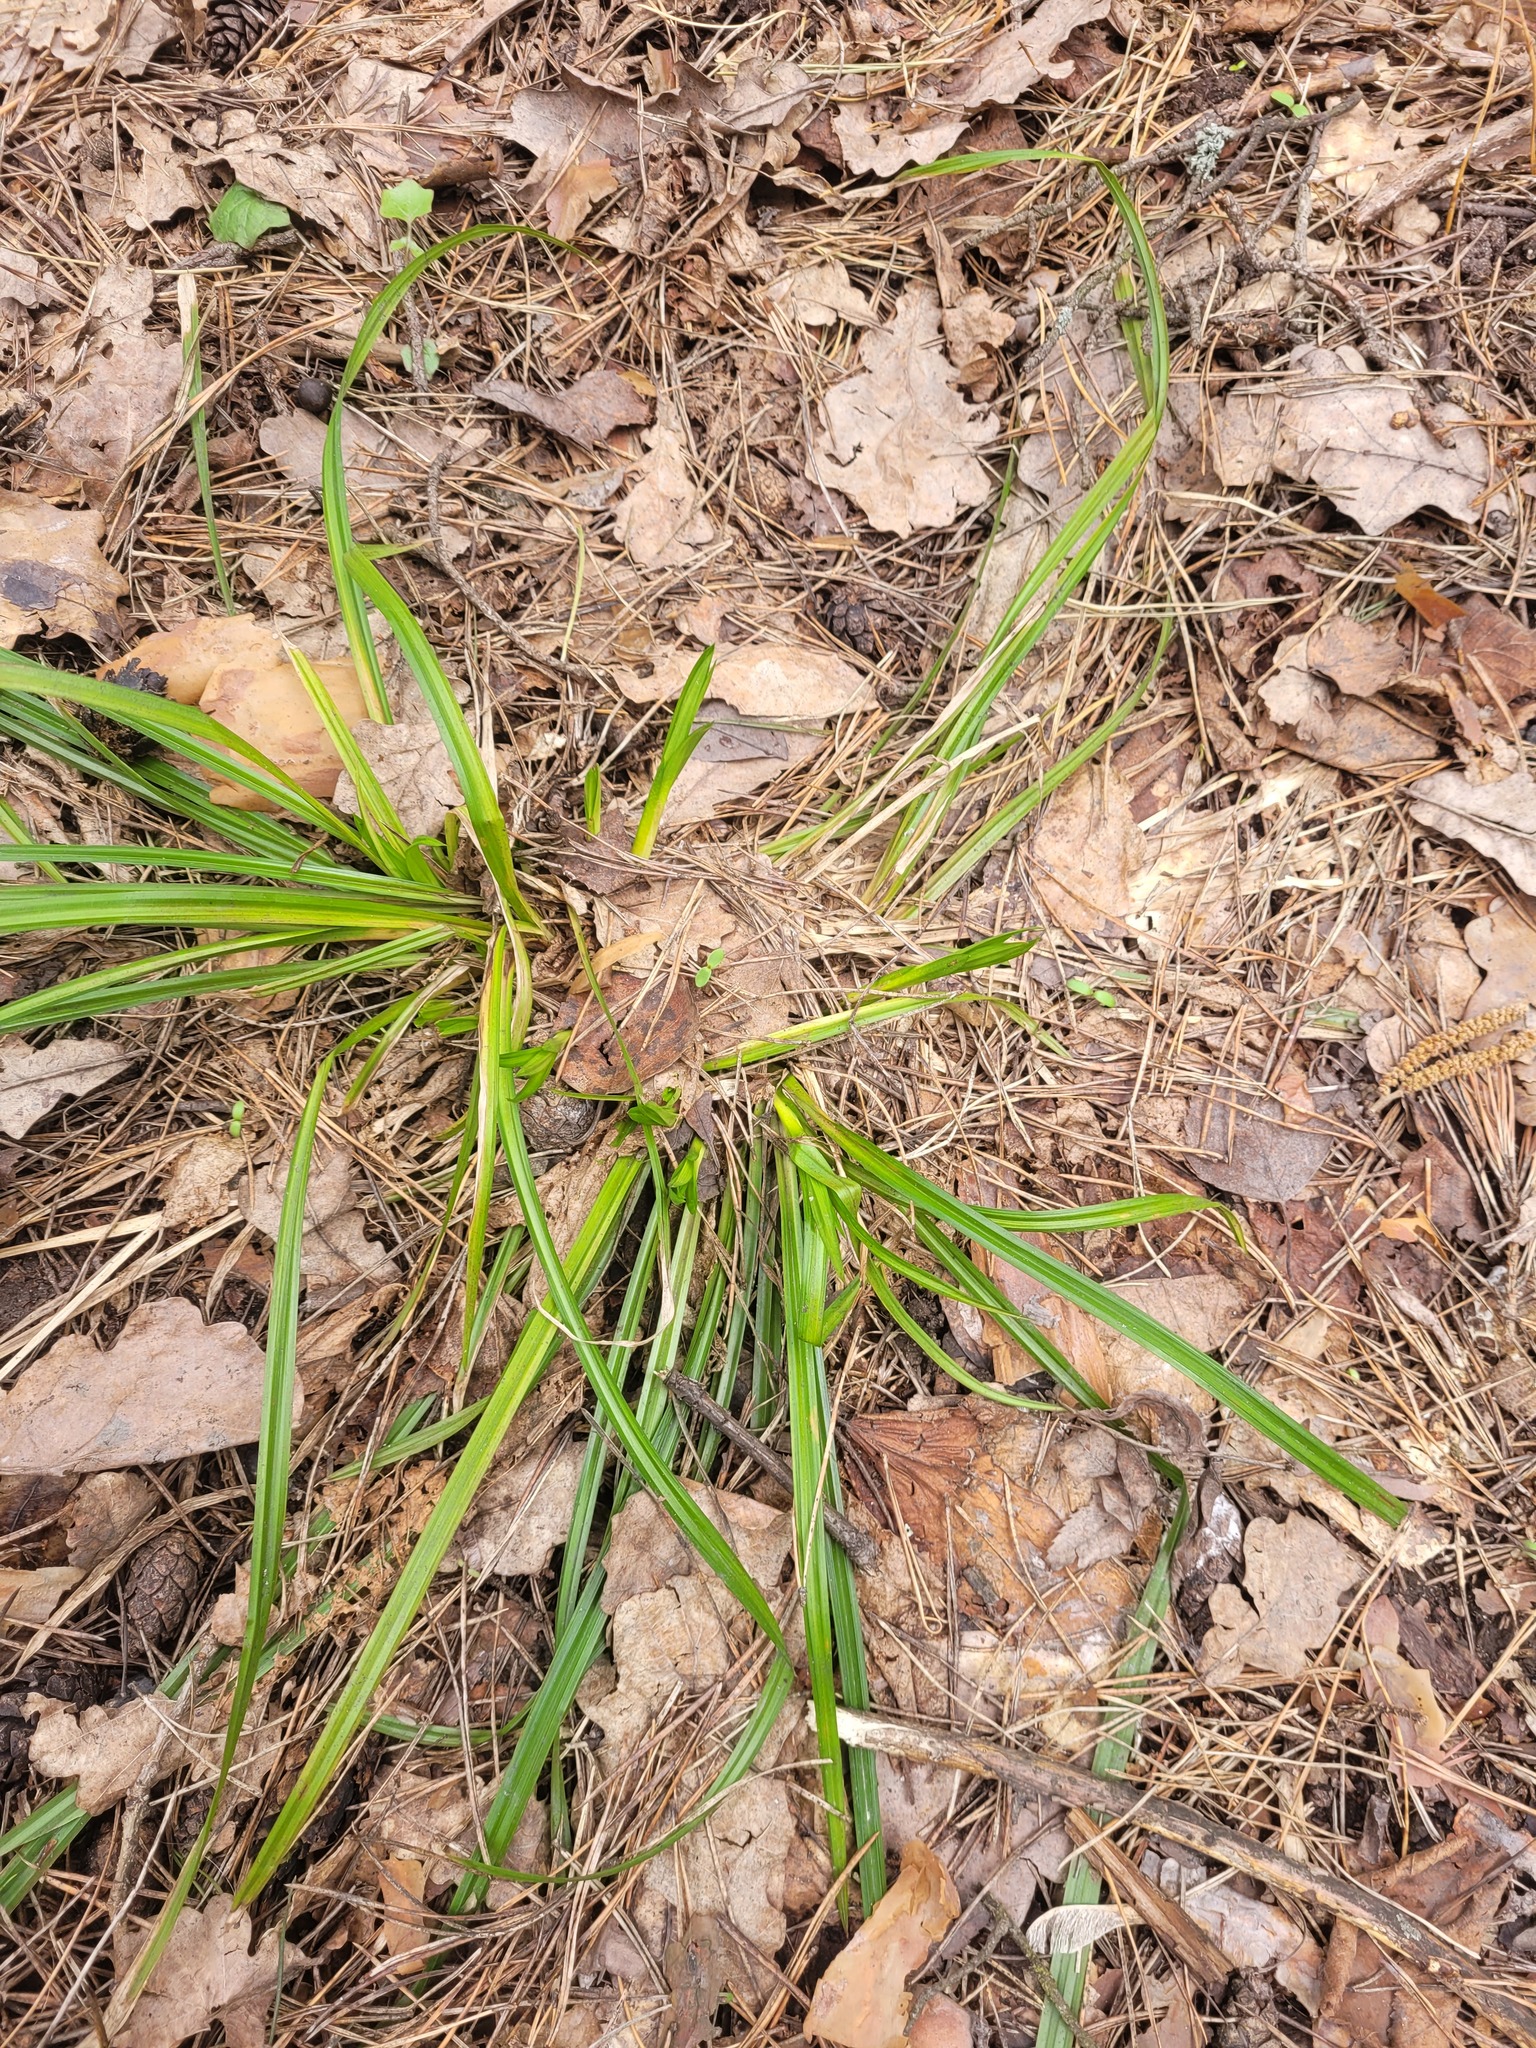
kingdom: Plantae
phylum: Tracheophyta
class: Liliopsida
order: Poales
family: Cyperaceae
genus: Carex
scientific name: Carex sylvatica
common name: Wood-sedge
